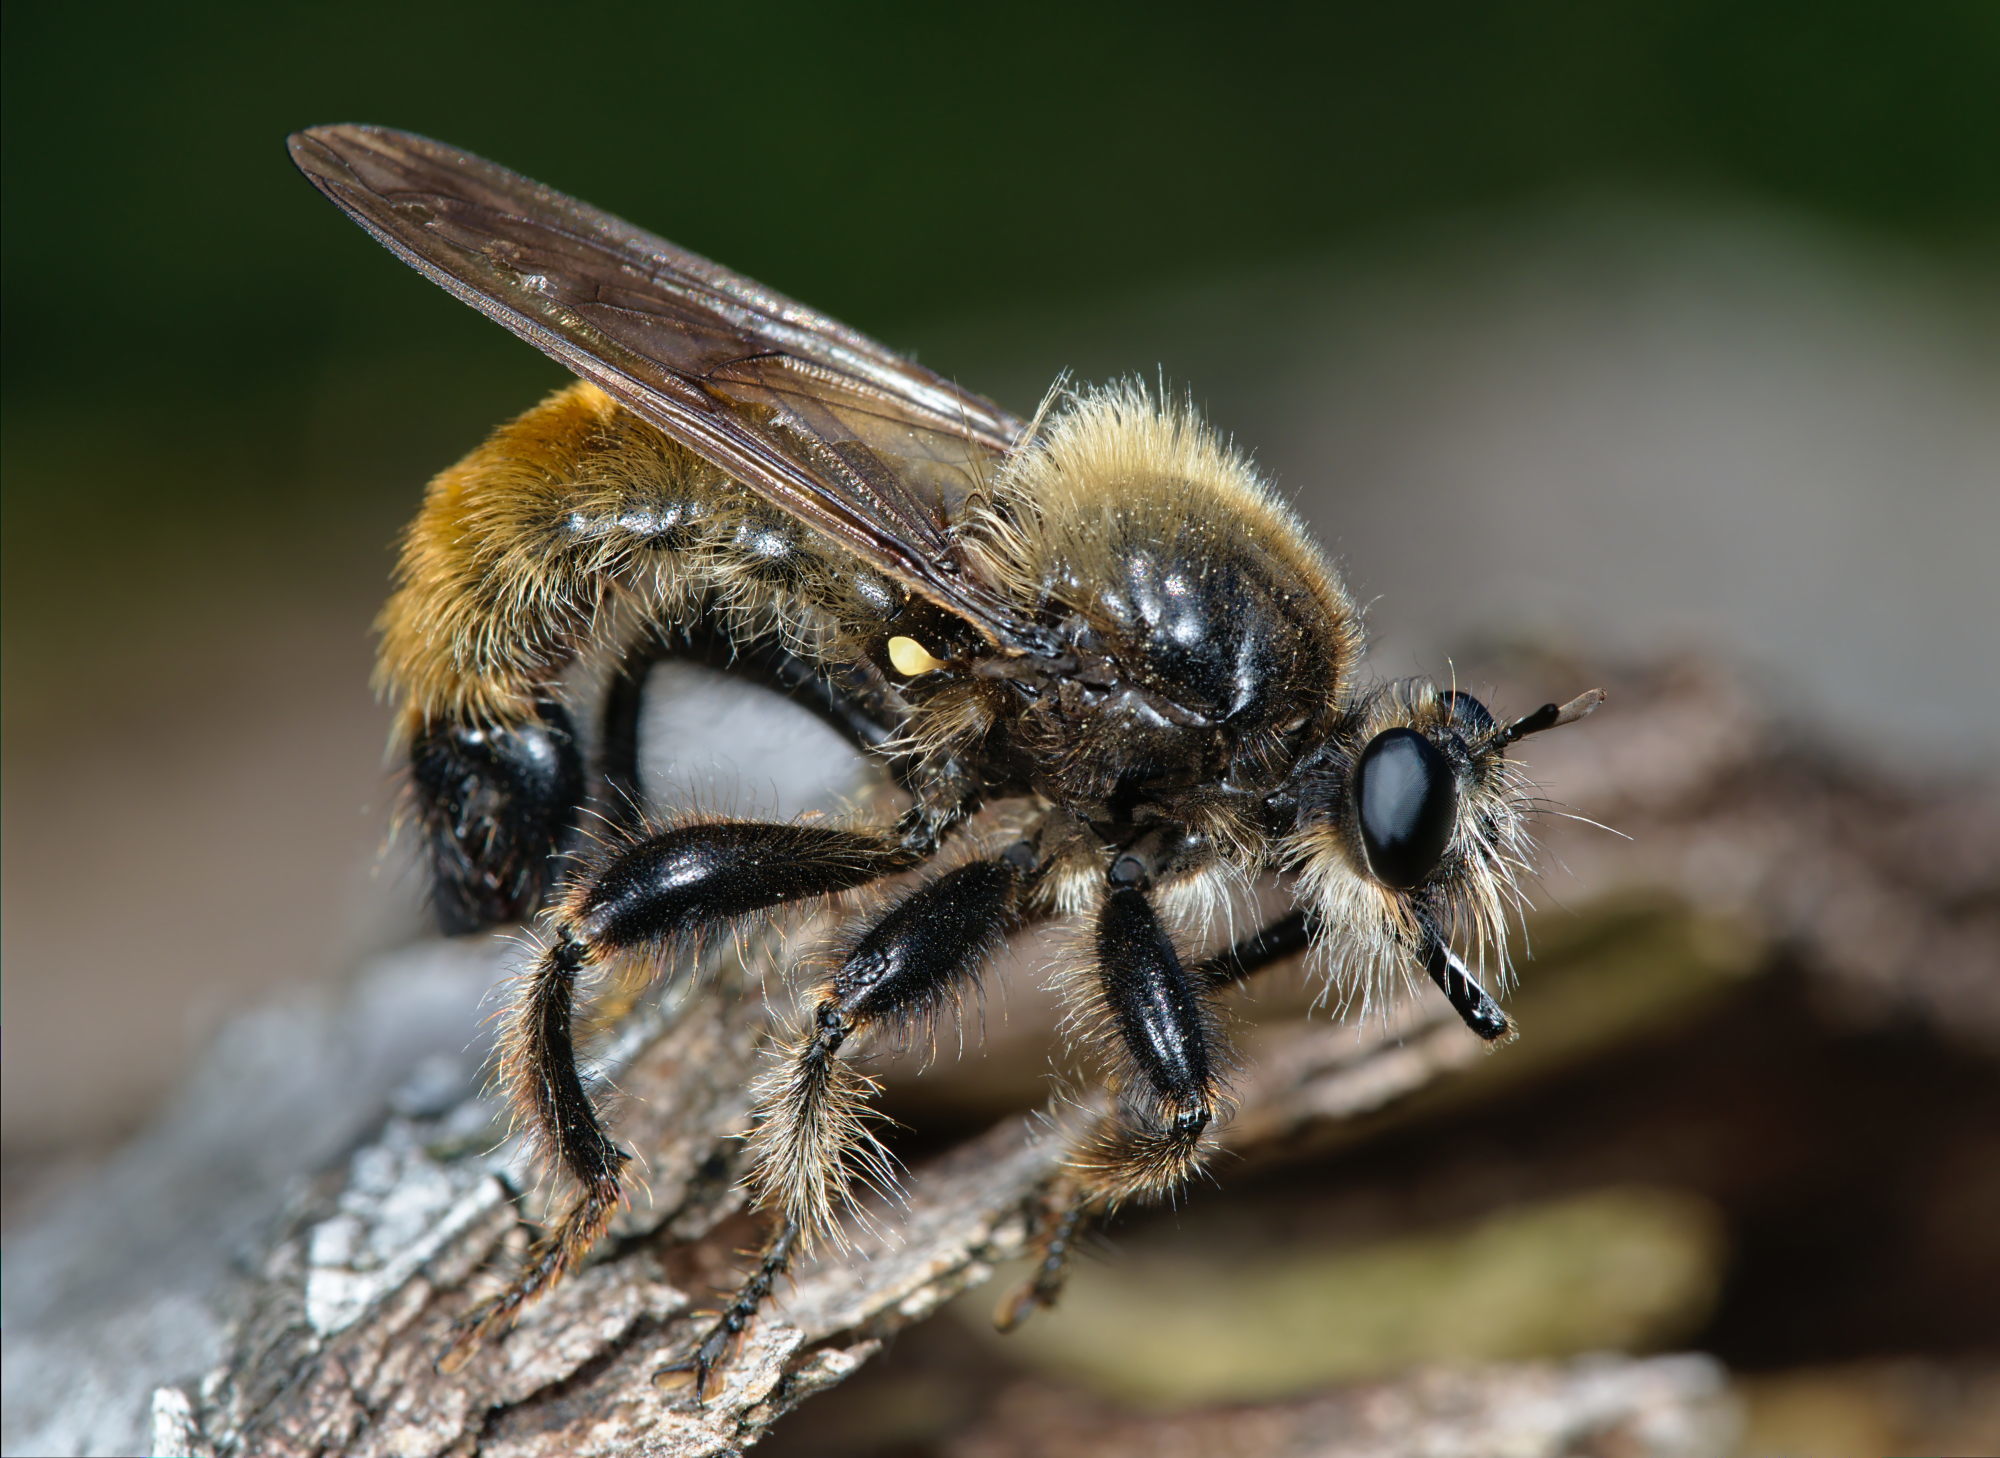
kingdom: Animalia
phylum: Arthropoda
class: Insecta
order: Diptera
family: Asilidae
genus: Laphria
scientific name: Laphria flava
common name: Bumblebee robberfly
